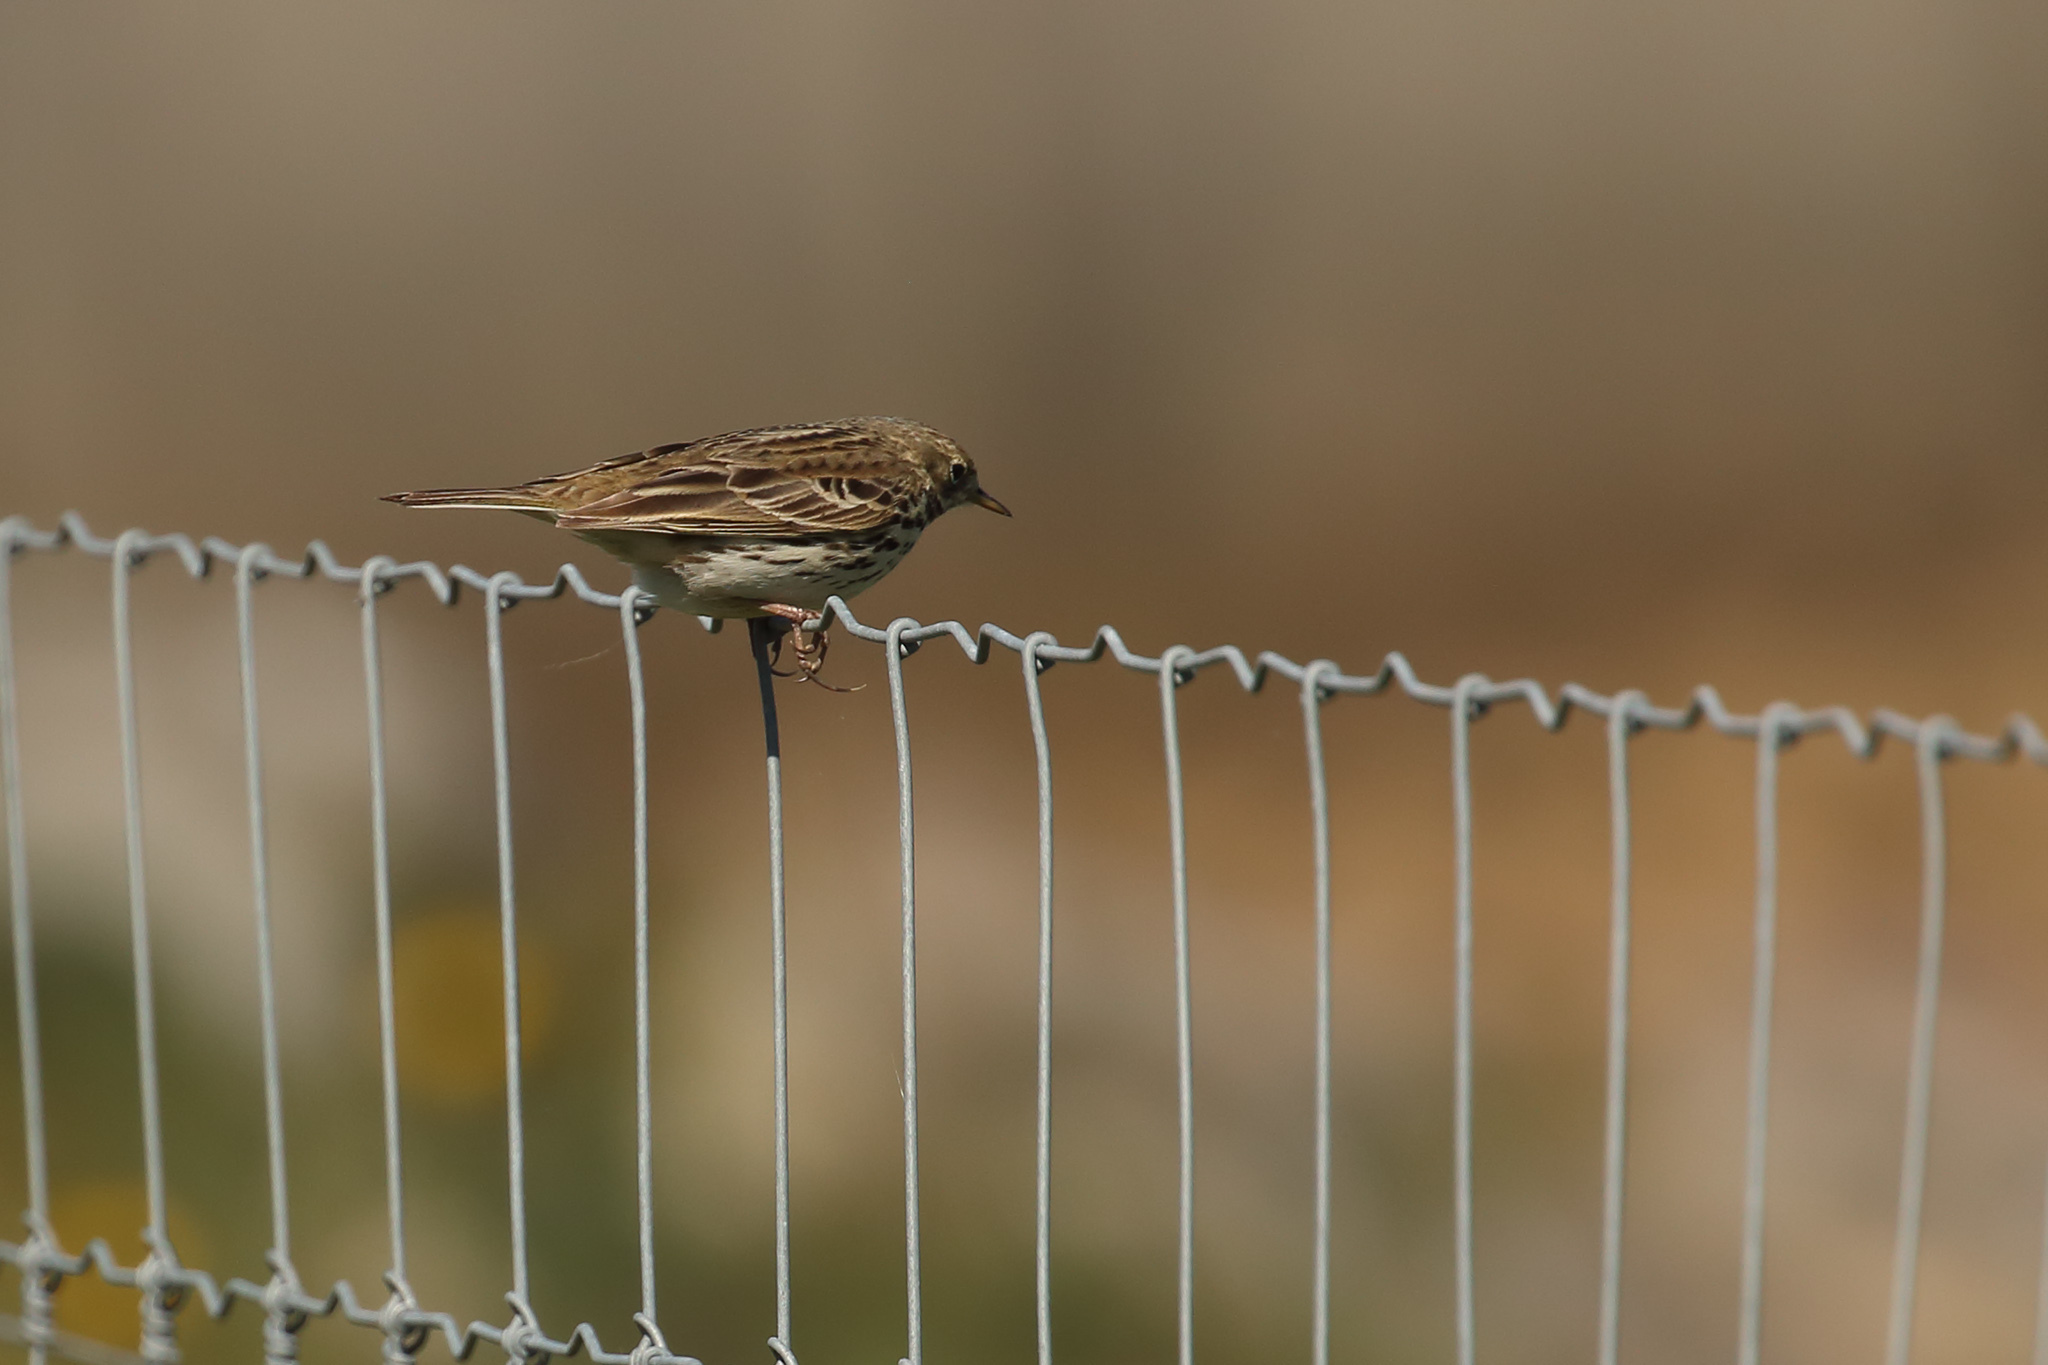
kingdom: Animalia
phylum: Chordata
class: Aves
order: Passeriformes
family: Motacillidae
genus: Anthus
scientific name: Anthus pratensis
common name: Meadow pipit
